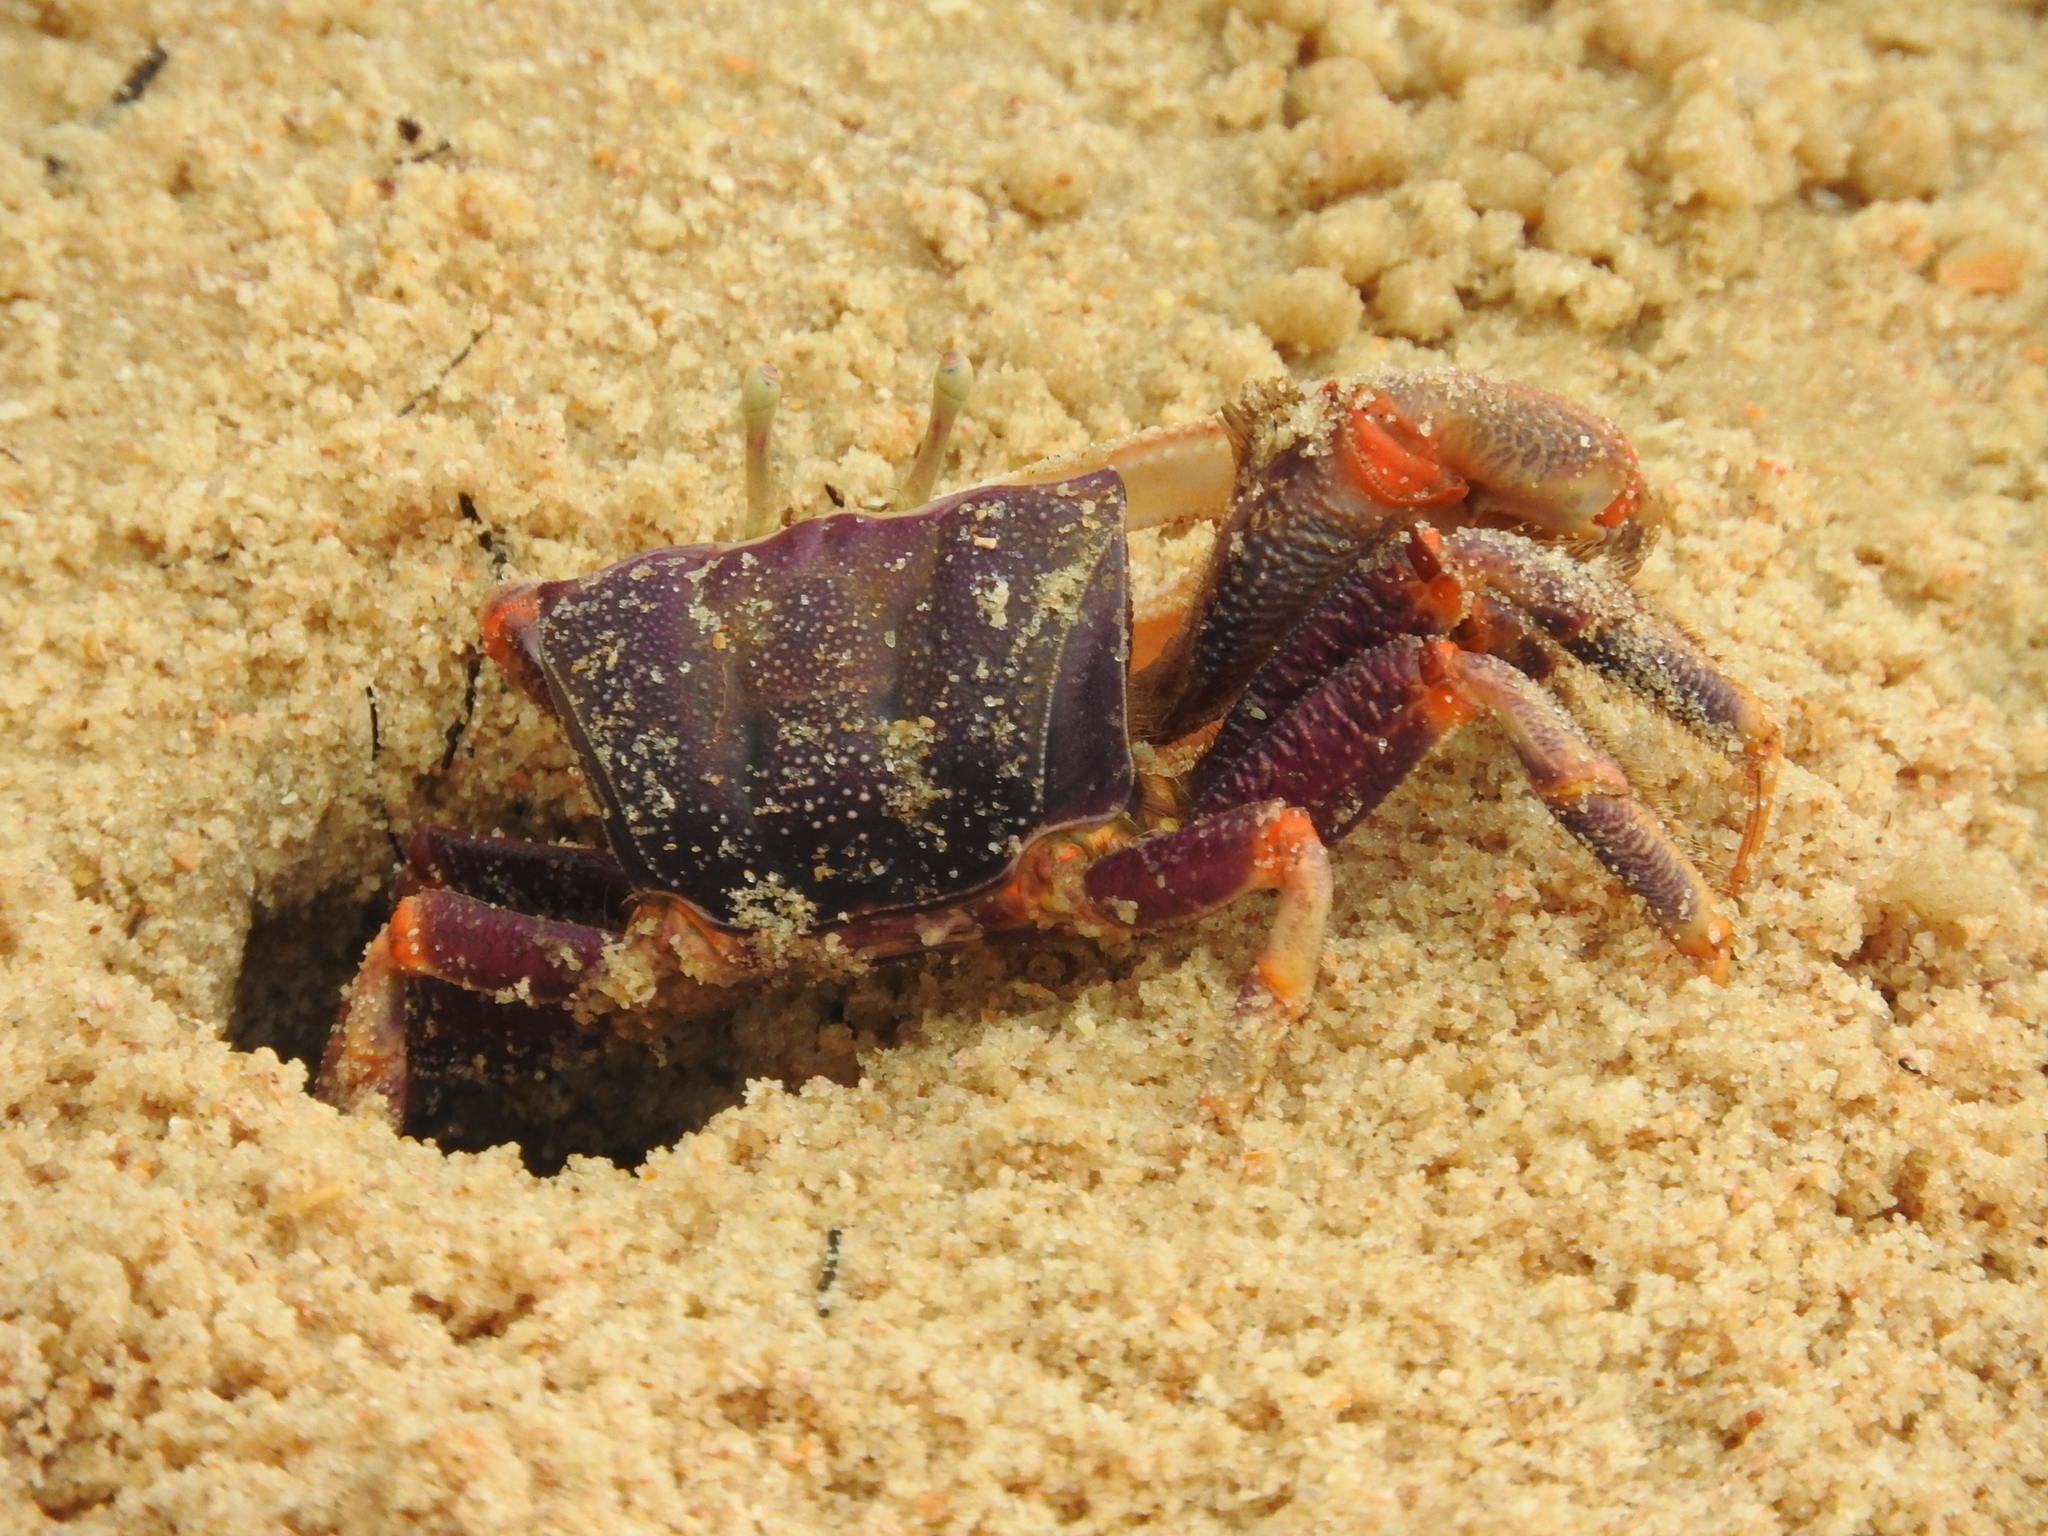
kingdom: Animalia
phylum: Arthropoda
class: Malacostraca
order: Decapoda
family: Ocypodidae
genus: Afruca
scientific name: Afruca tangeri
